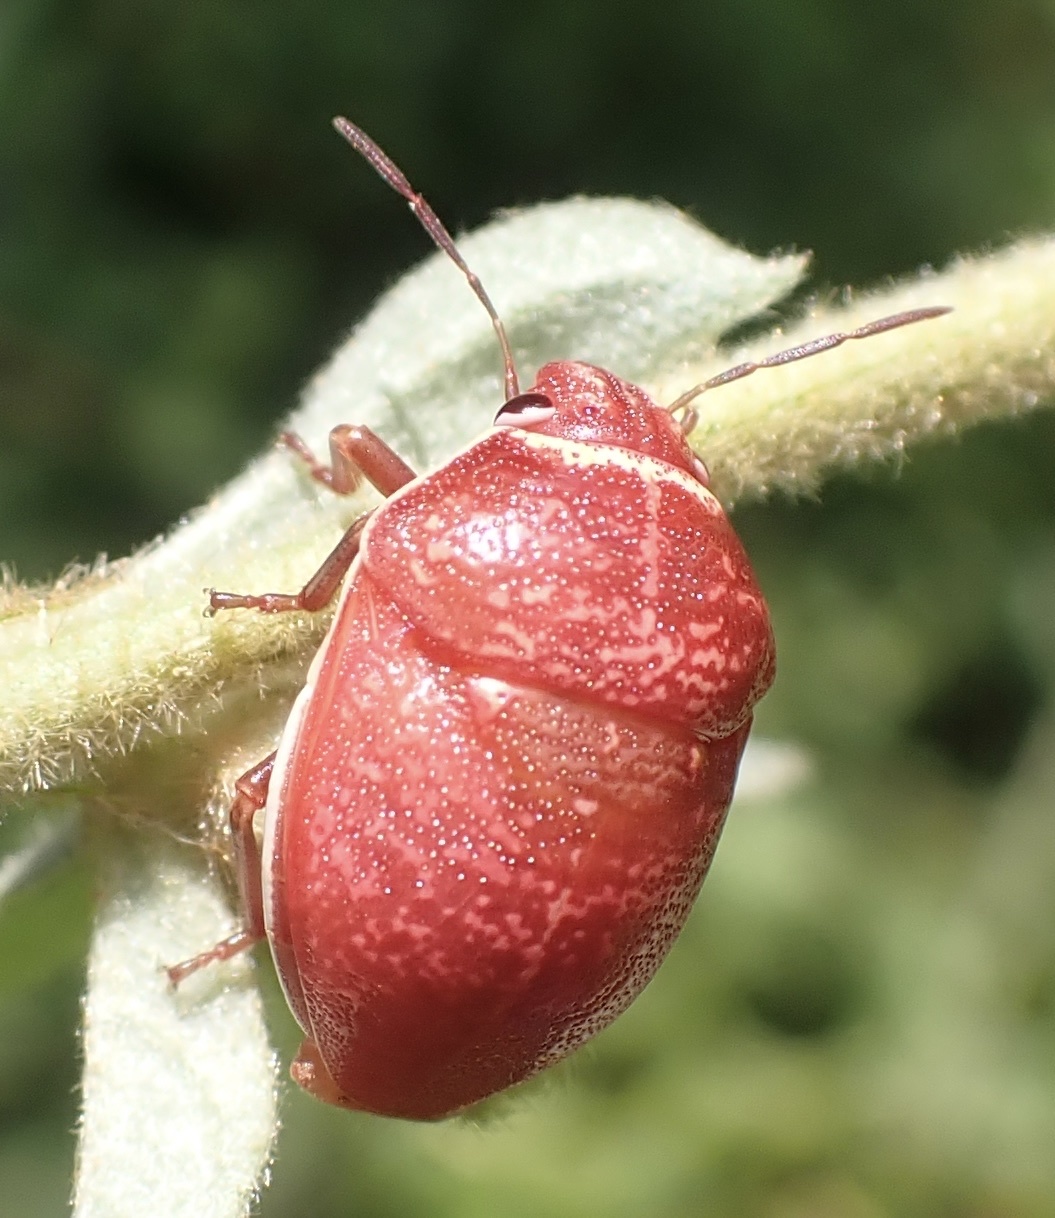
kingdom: Animalia
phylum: Arthropoda
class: Insecta
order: Hemiptera
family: Scutelleridae
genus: Orsilochides
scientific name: Orsilochides guttata
